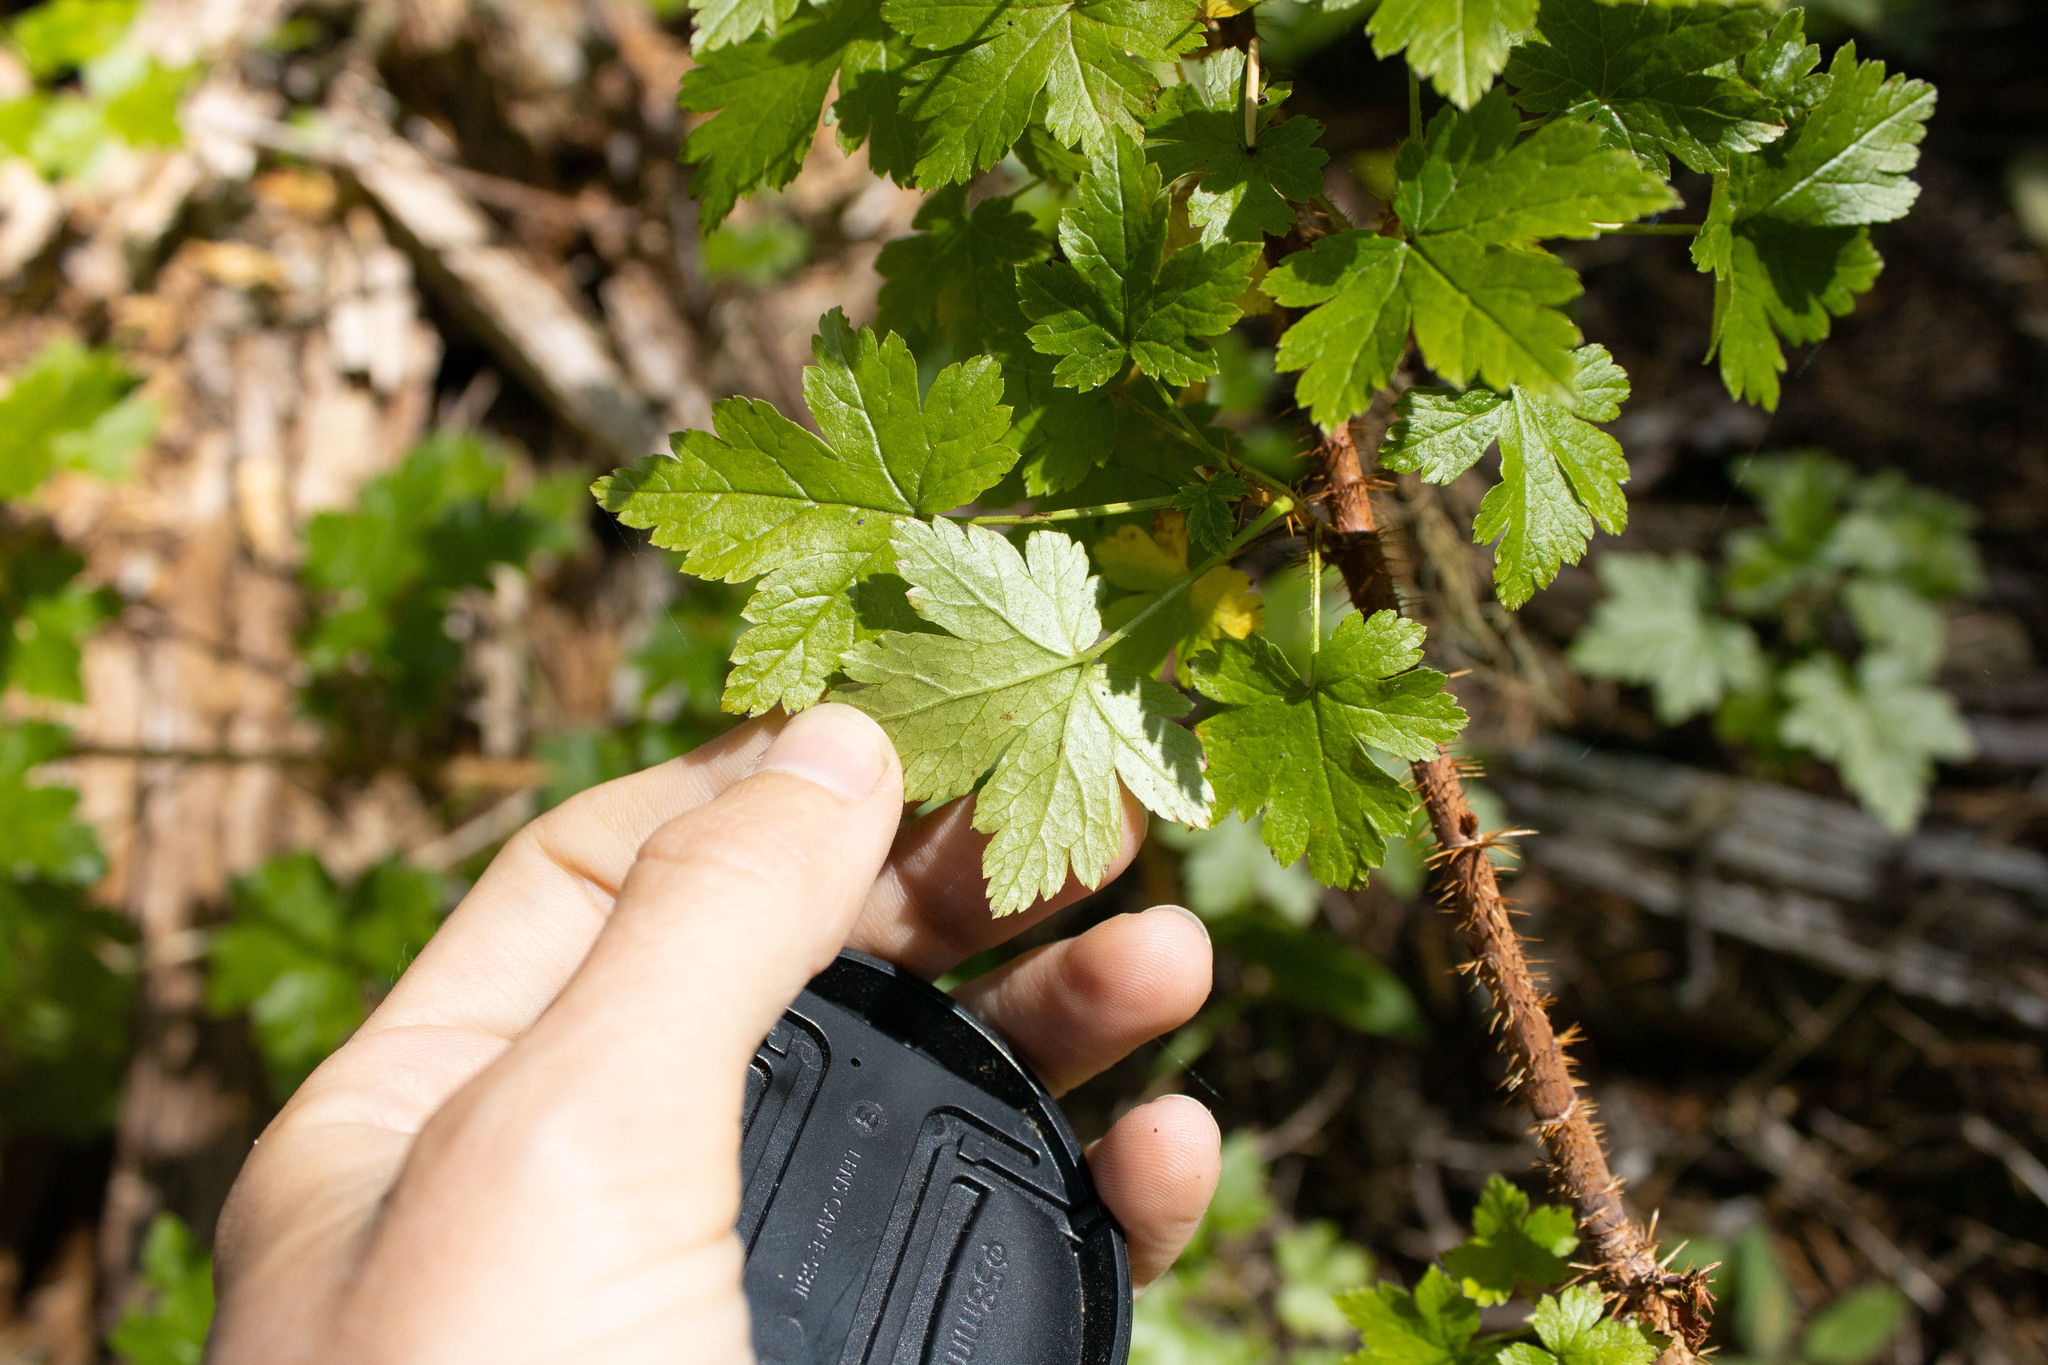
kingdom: Plantae
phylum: Tracheophyta
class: Magnoliopsida
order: Saxifragales
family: Grossulariaceae
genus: Ribes
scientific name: Ribes lacustre
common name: Black gooseberry
